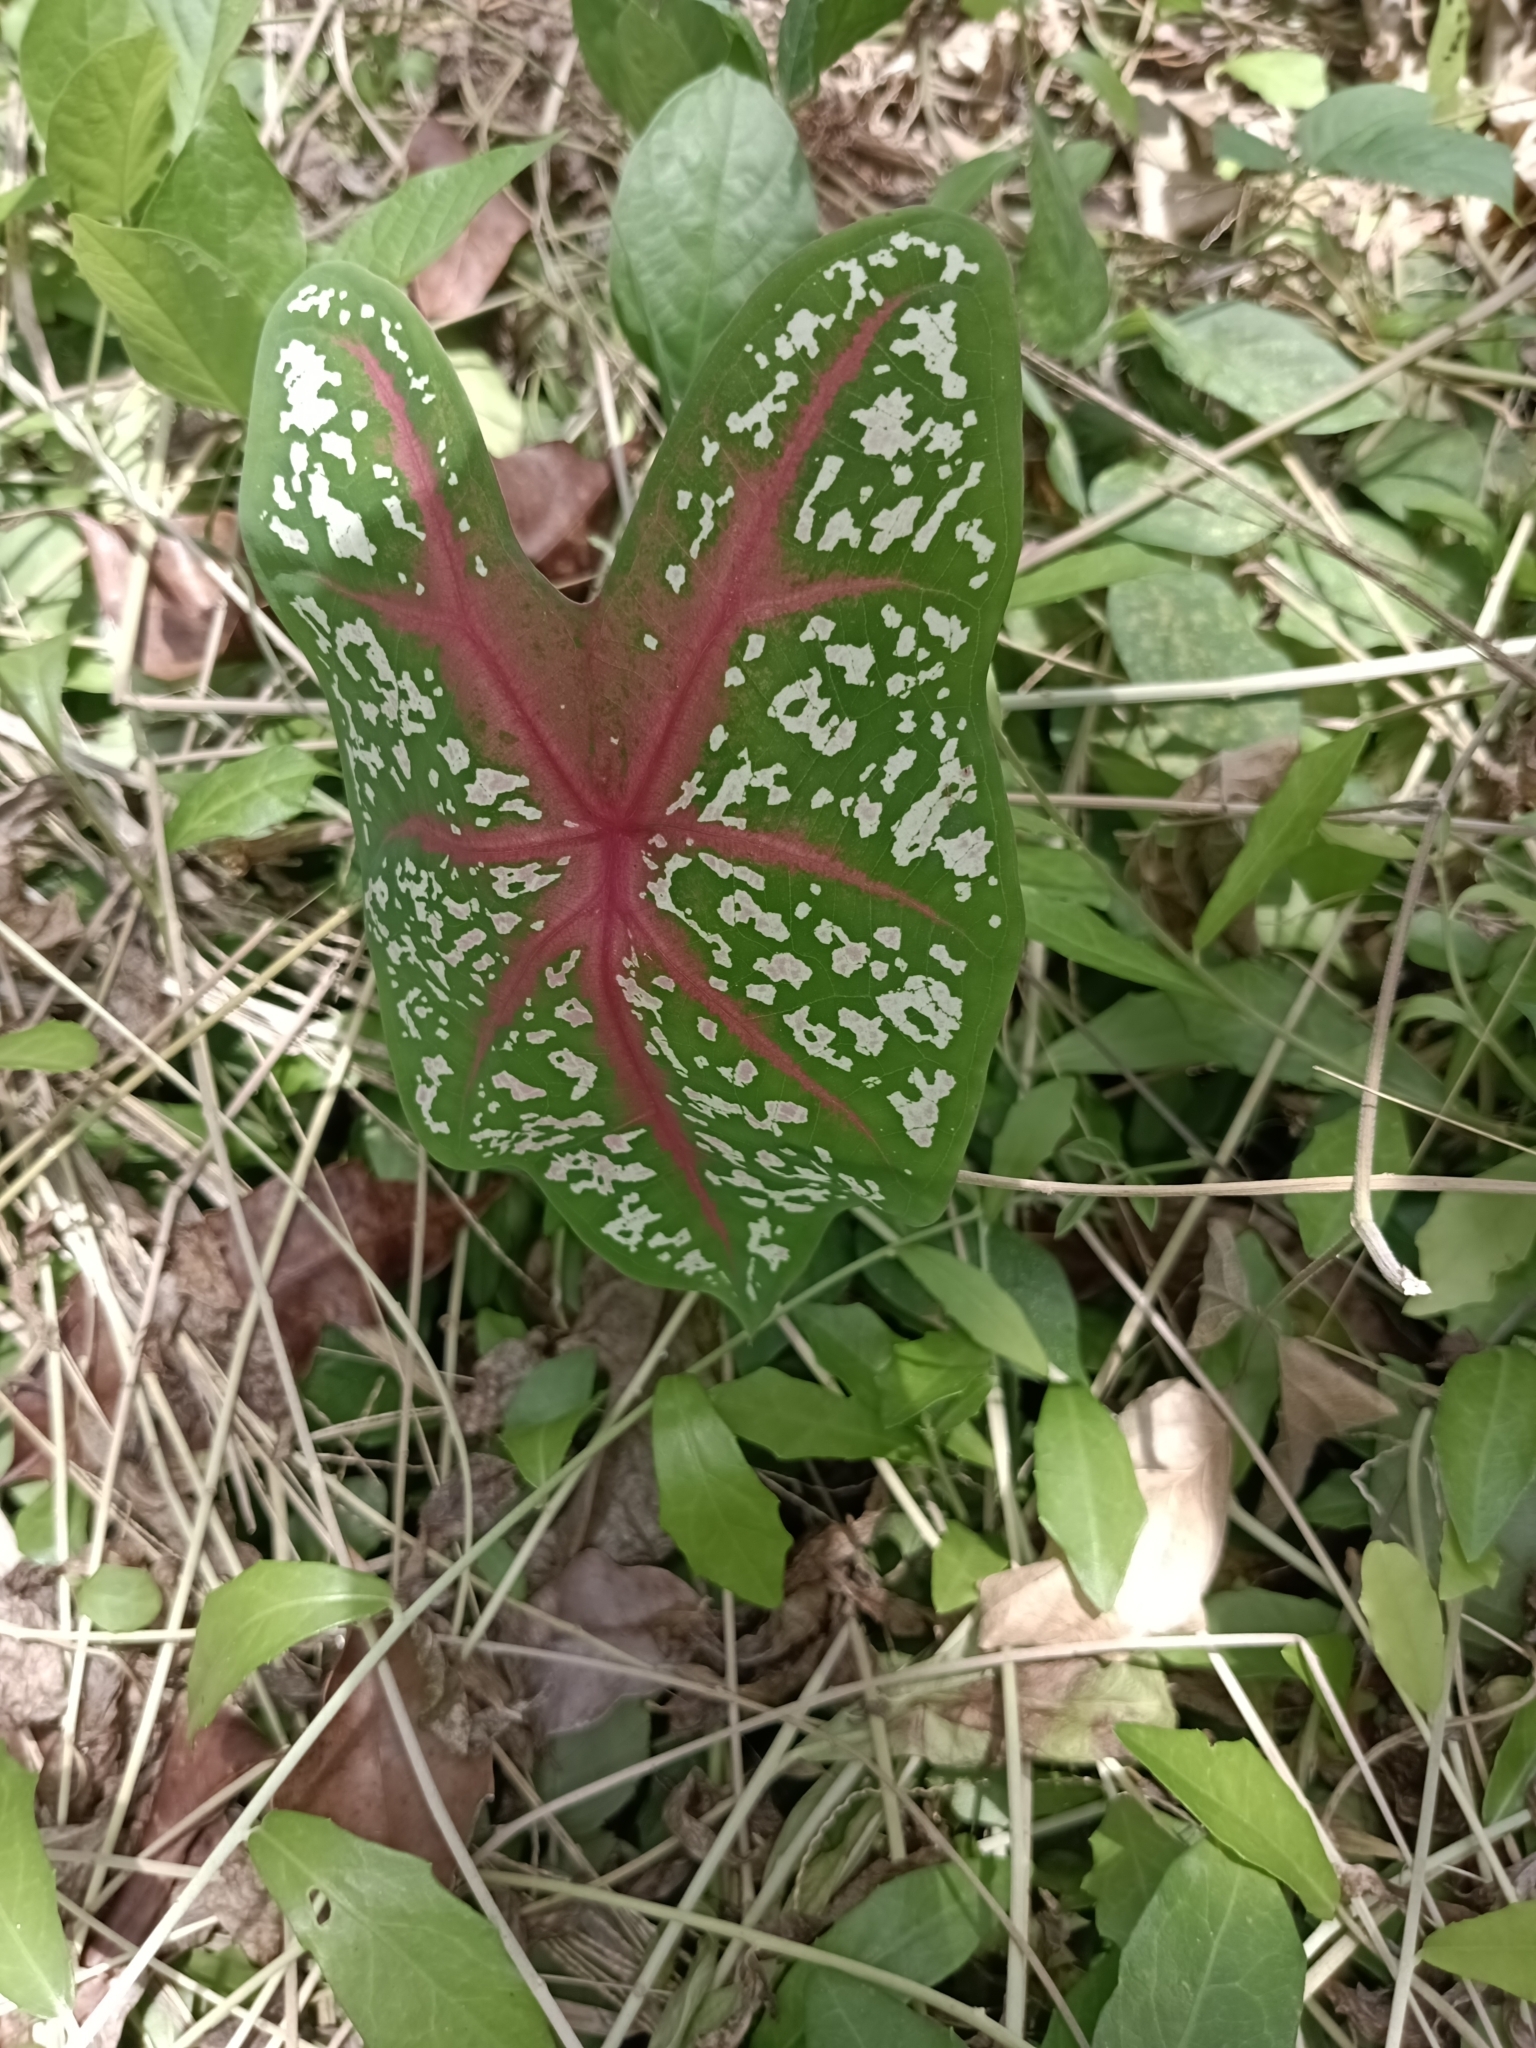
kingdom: Plantae
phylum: Tracheophyta
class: Liliopsida
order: Alismatales
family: Araceae
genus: Caladium
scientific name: Caladium bicolor
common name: Artist's pallet
